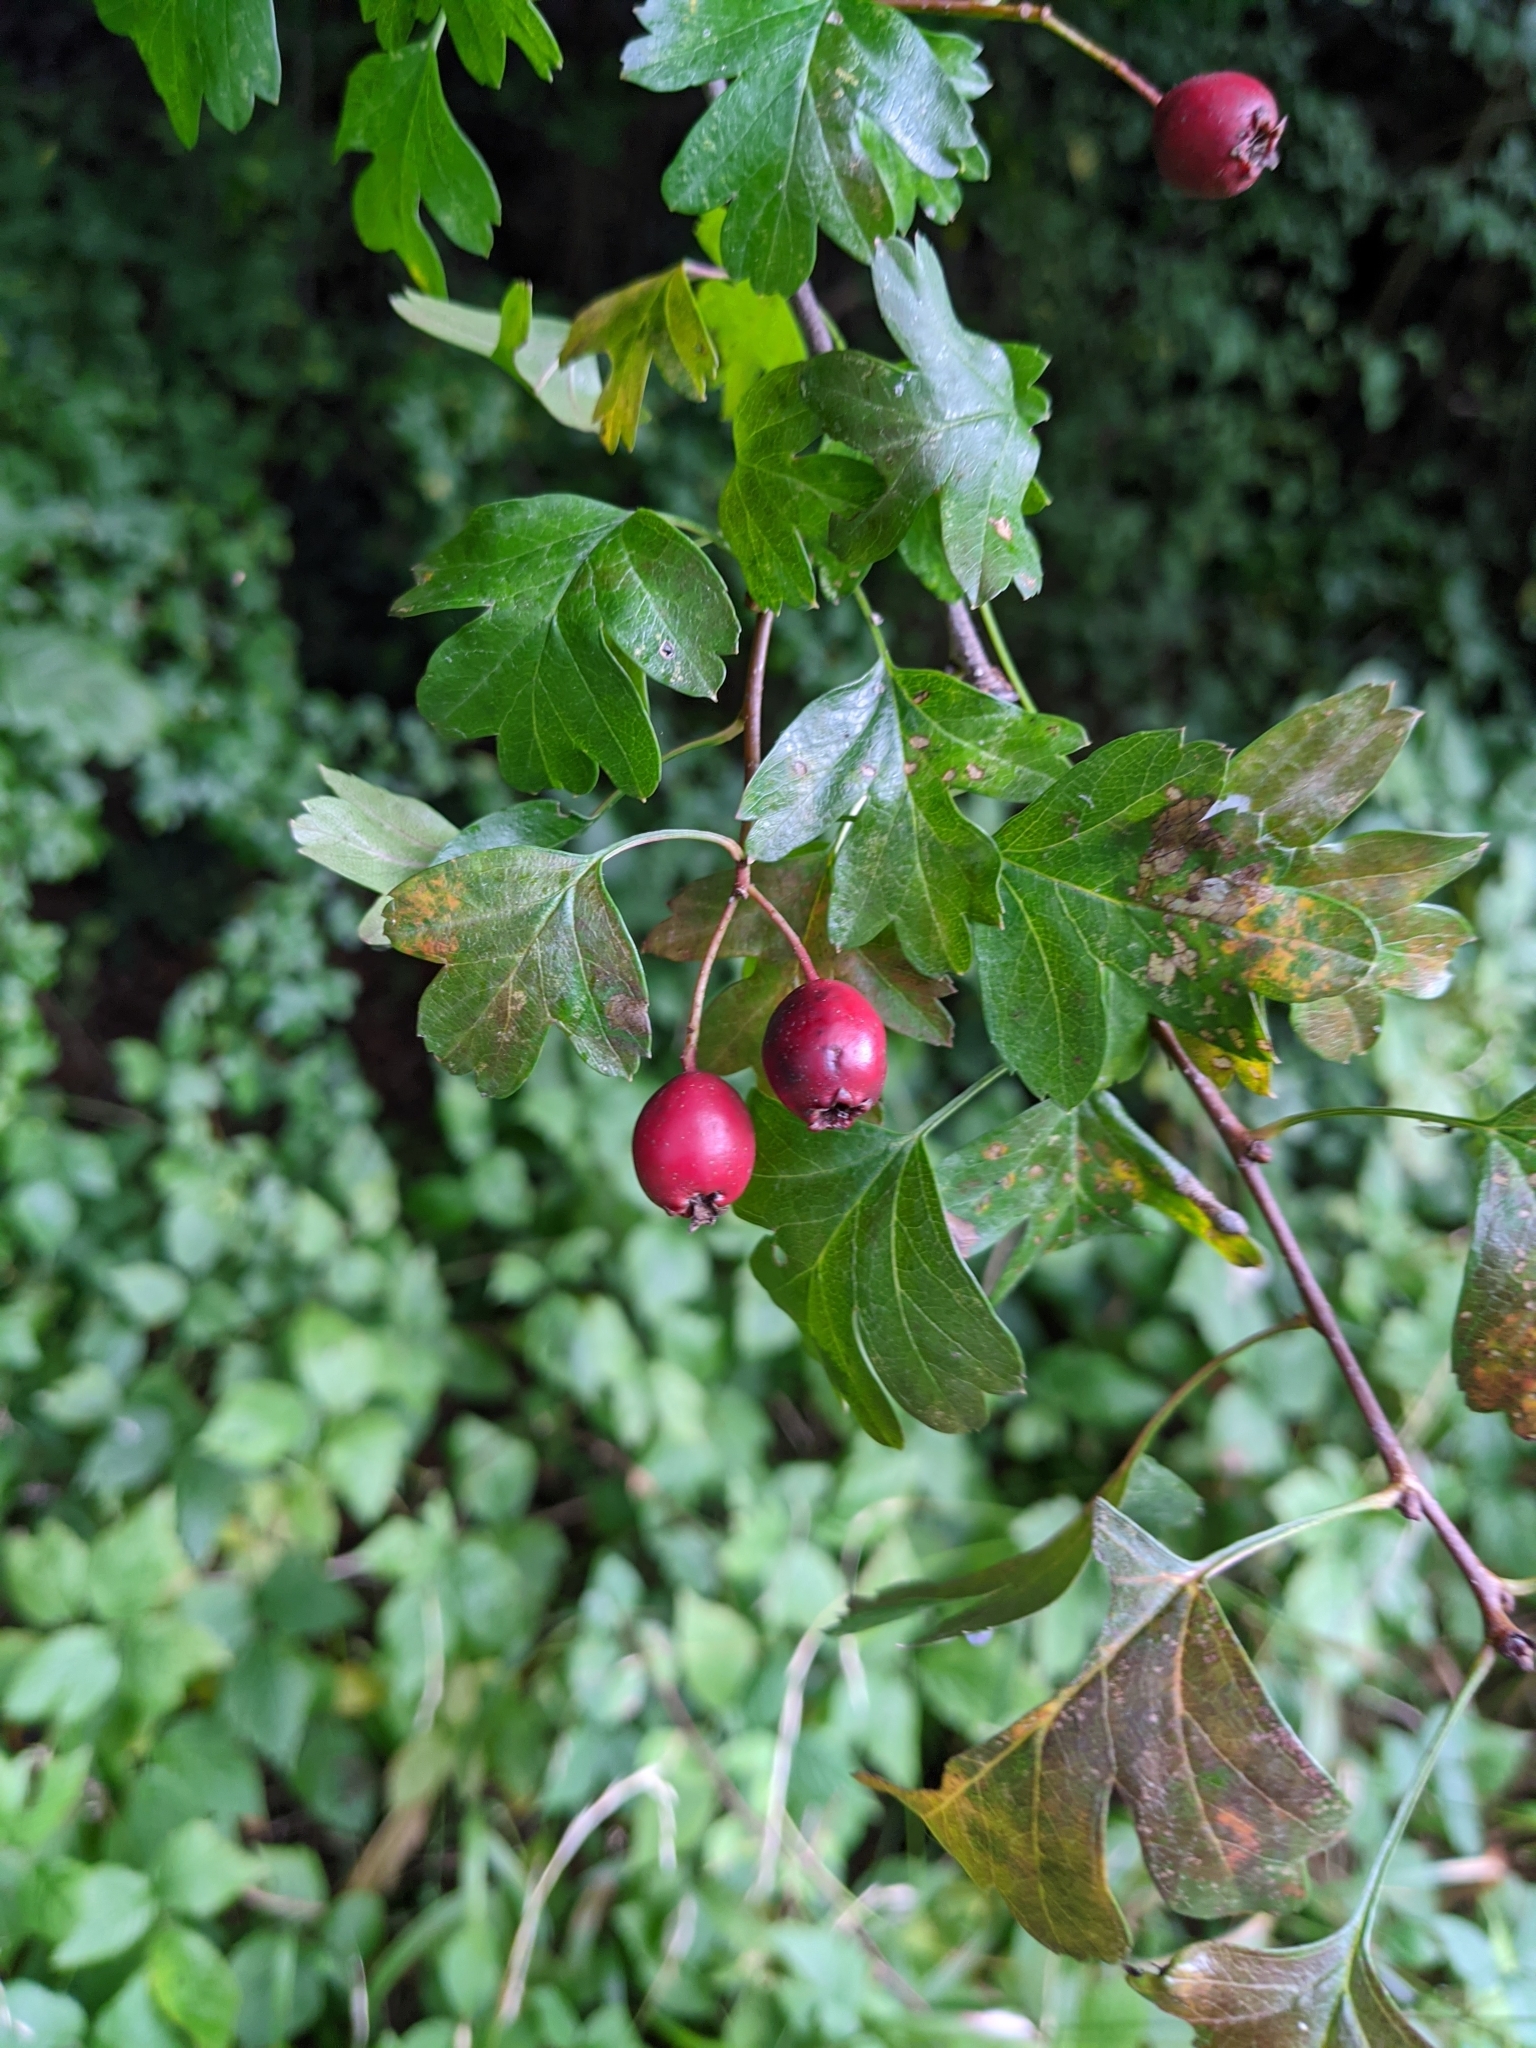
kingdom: Plantae
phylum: Tracheophyta
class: Magnoliopsida
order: Rosales
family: Rosaceae
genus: Crataegus
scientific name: Crataegus monogyna
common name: Hawthorn
